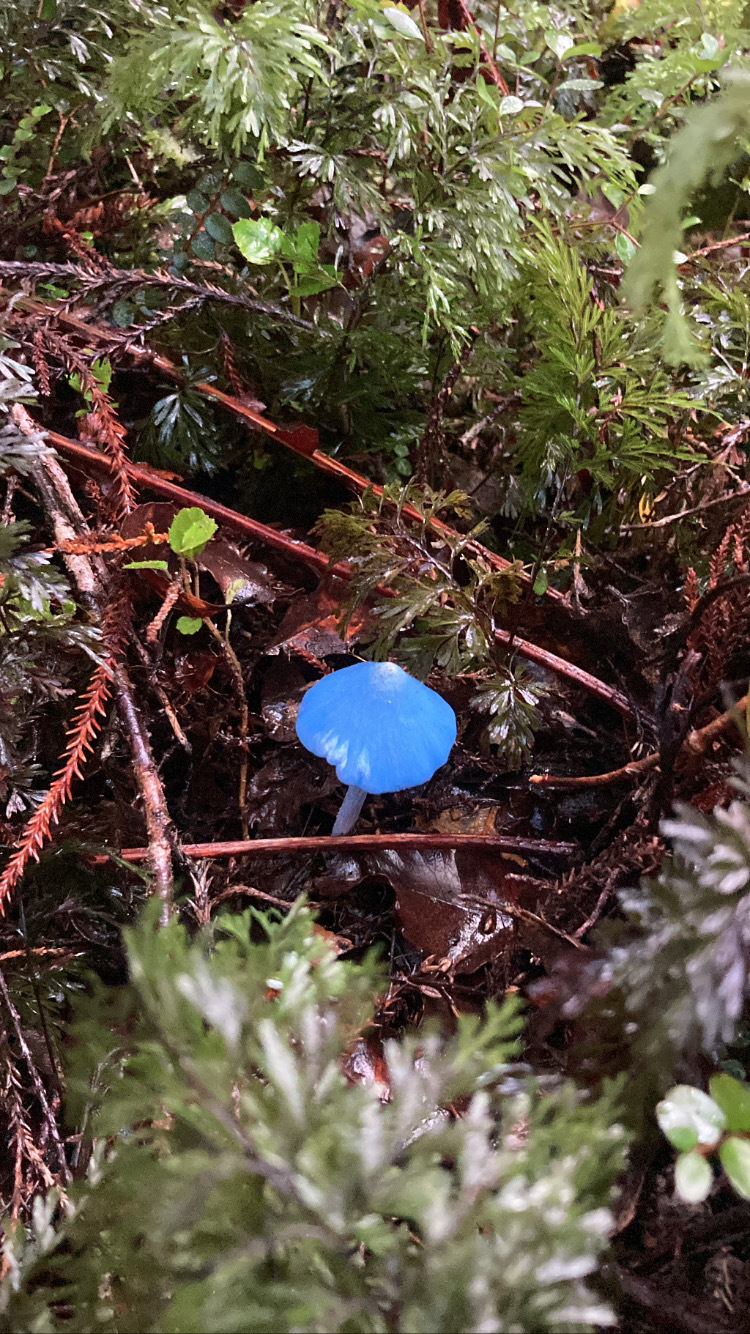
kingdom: Fungi
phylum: Basidiomycota
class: Agaricomycetes
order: Agaricales
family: Entolomataceae
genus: Entoloma
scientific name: Entoloma hochstetteri
